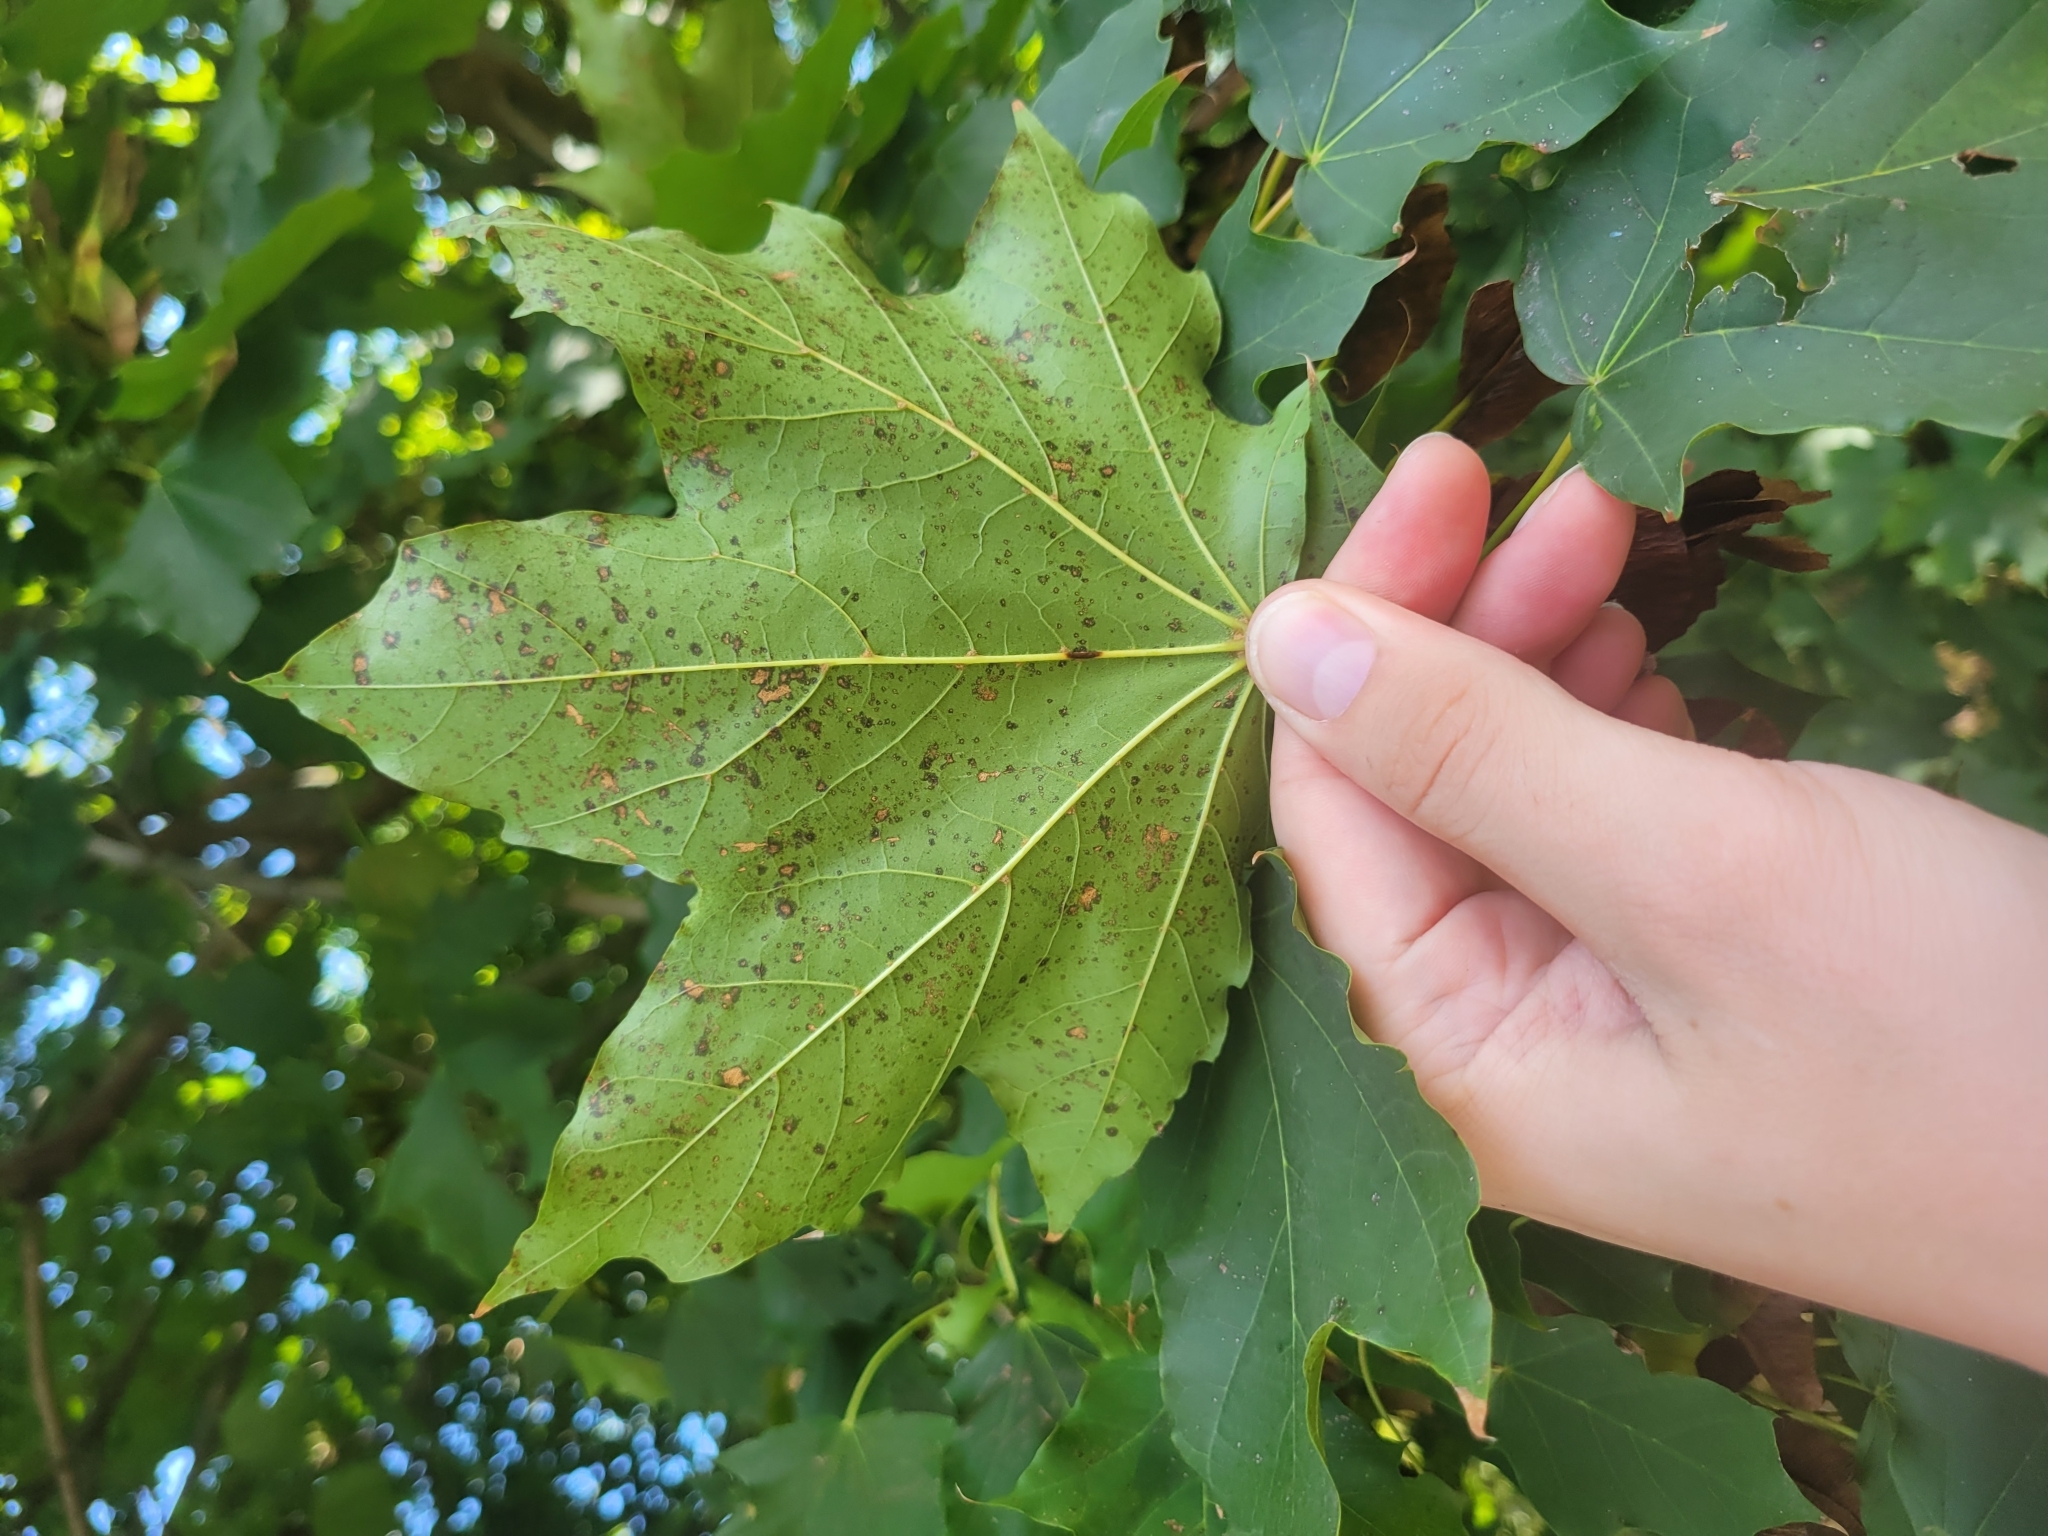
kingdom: Plantae
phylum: Tracheophyta
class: Magnoliopsida
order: Sapindales
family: Sapindaceae
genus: Acer
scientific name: Acer platanoides
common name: Norway maple
